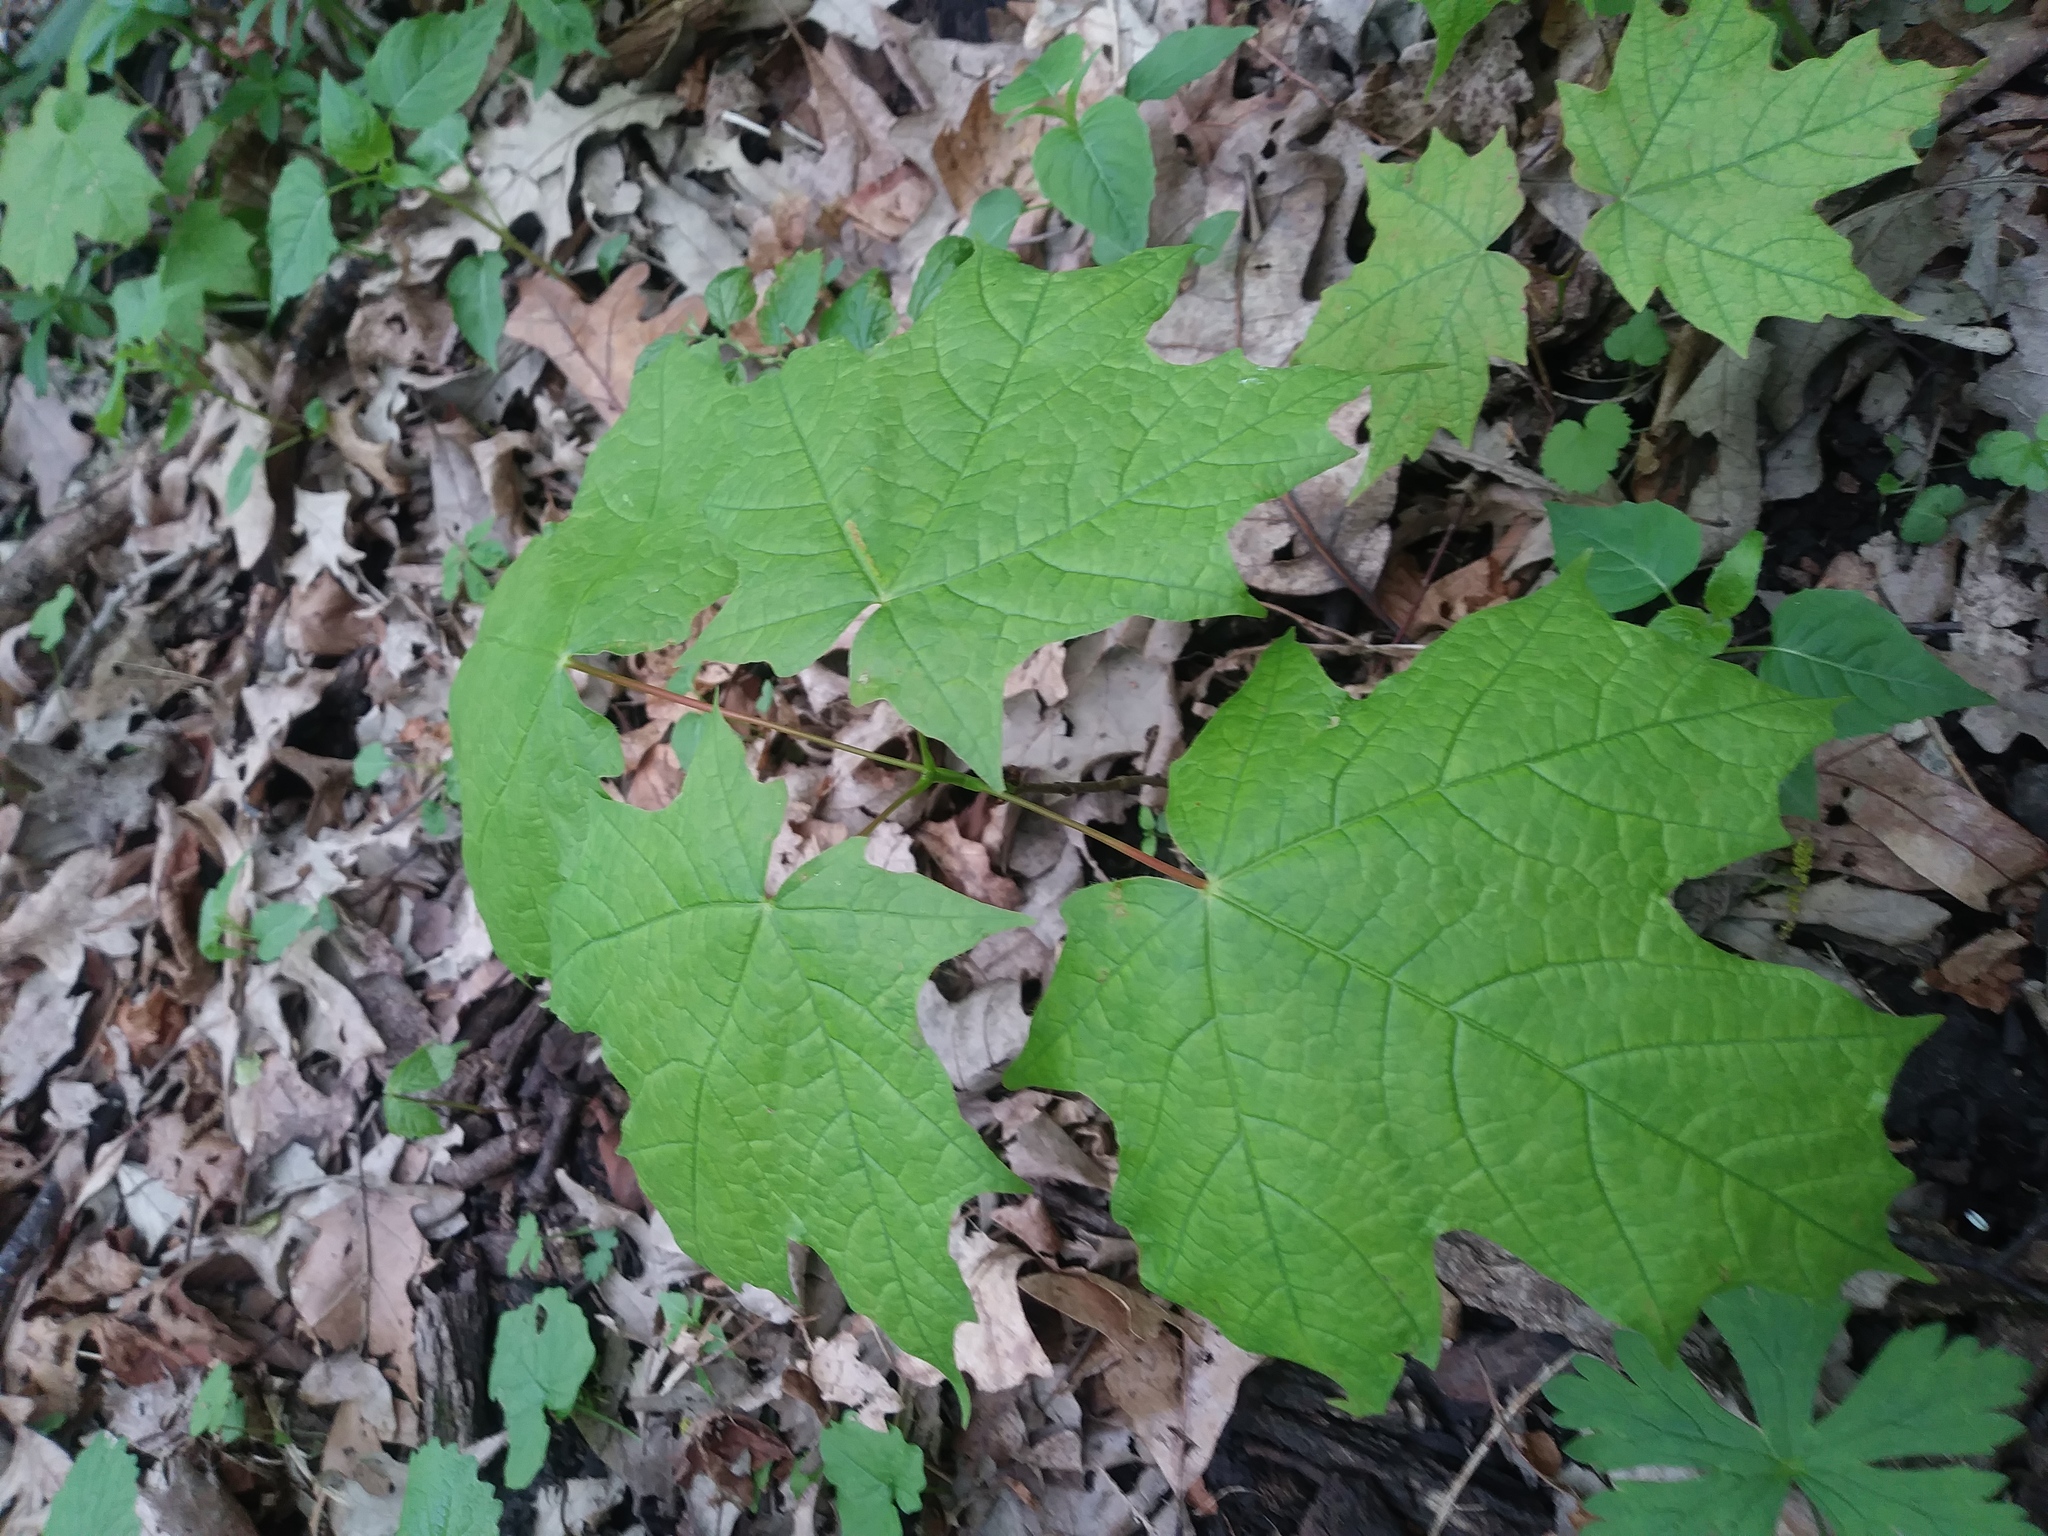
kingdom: Plantae
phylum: Tracheophyta
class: Magnoliopsida
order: Sapindales
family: Sapindaceae
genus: Acer
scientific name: Acer saccharum
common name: Sugar maple
